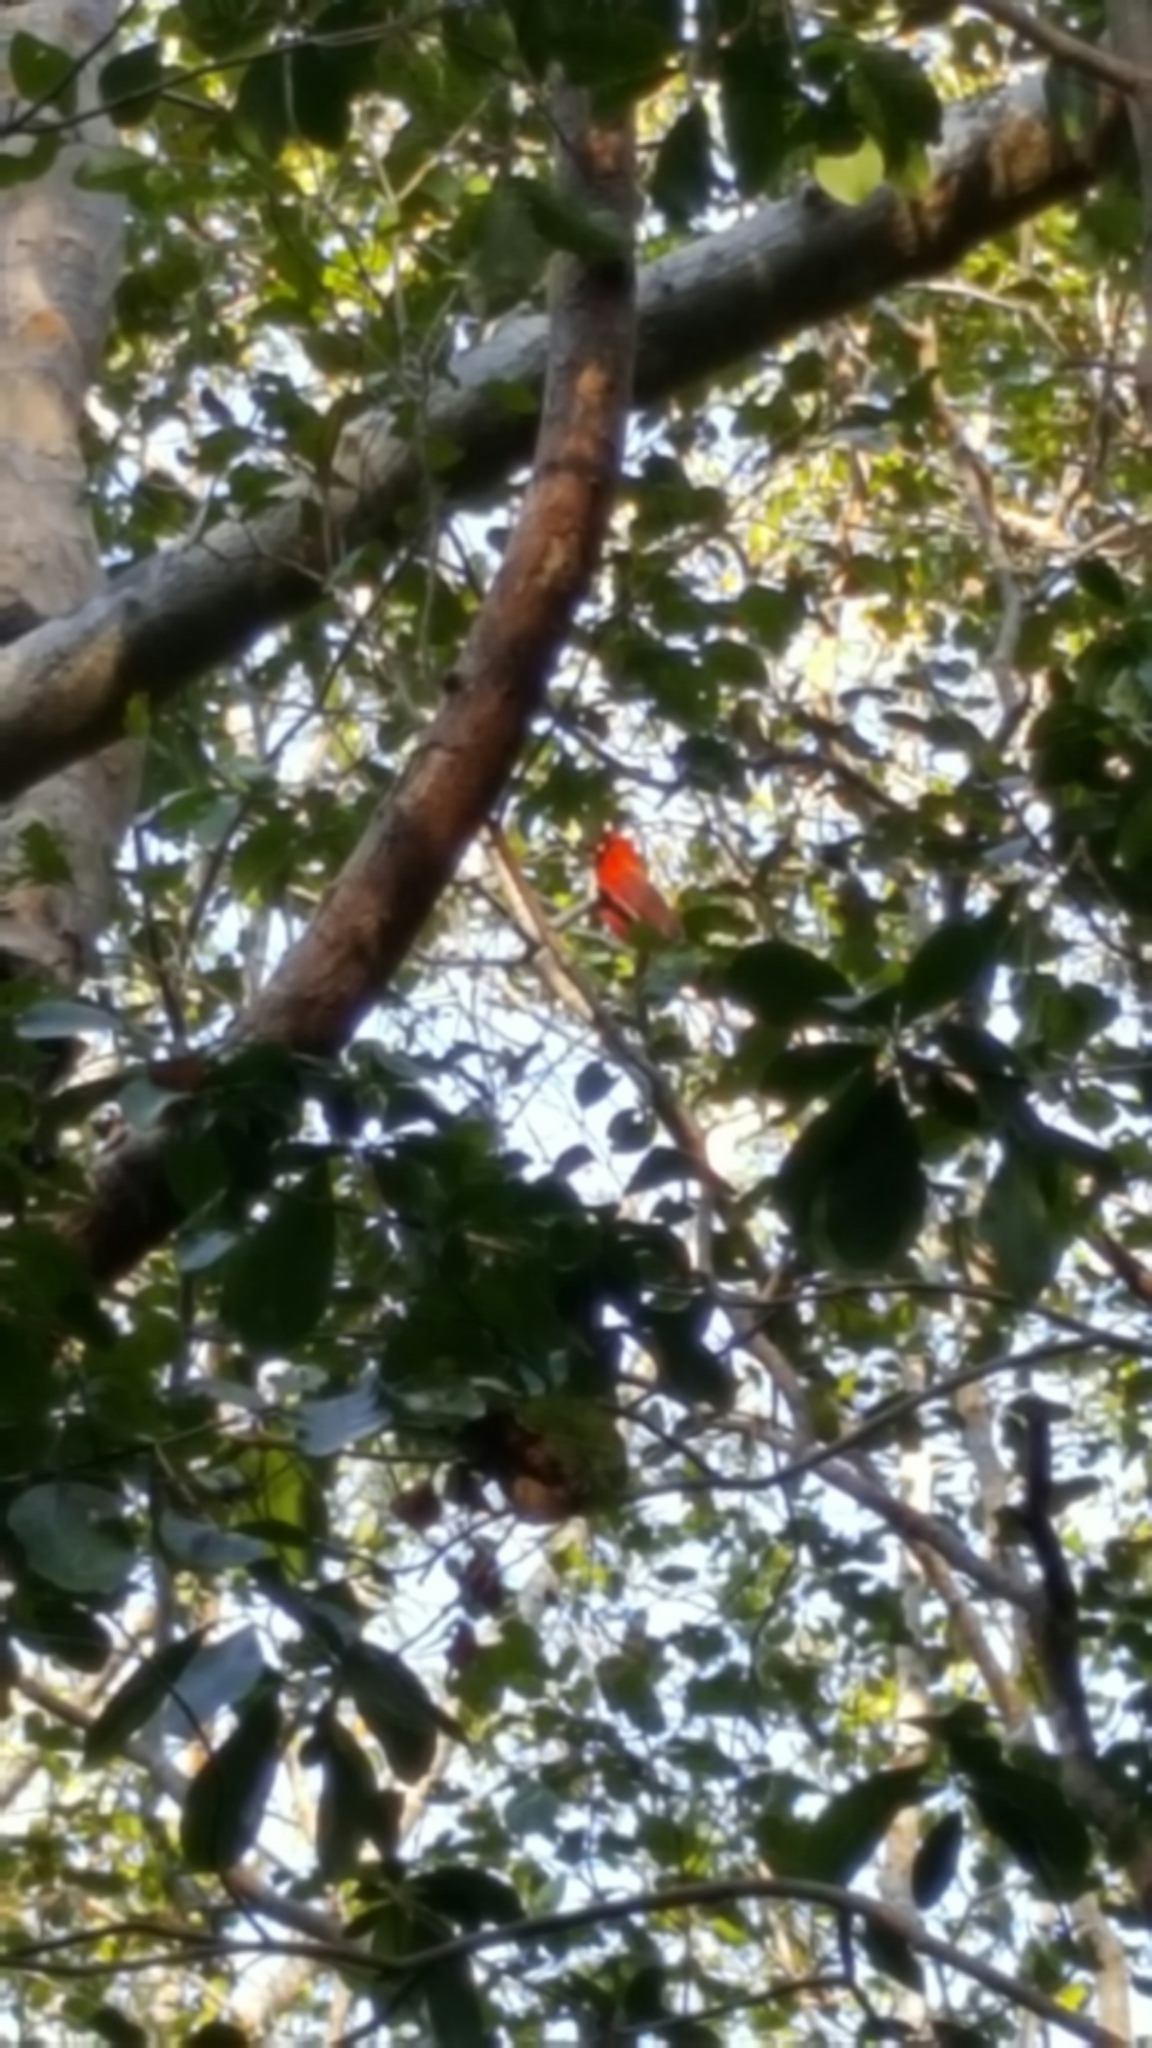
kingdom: Animalia
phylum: Chordata
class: Aves
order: Passeriformes
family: Cardinalidae
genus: Cardinalis
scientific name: Cardinalis cardinalis
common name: Northern cardinal
